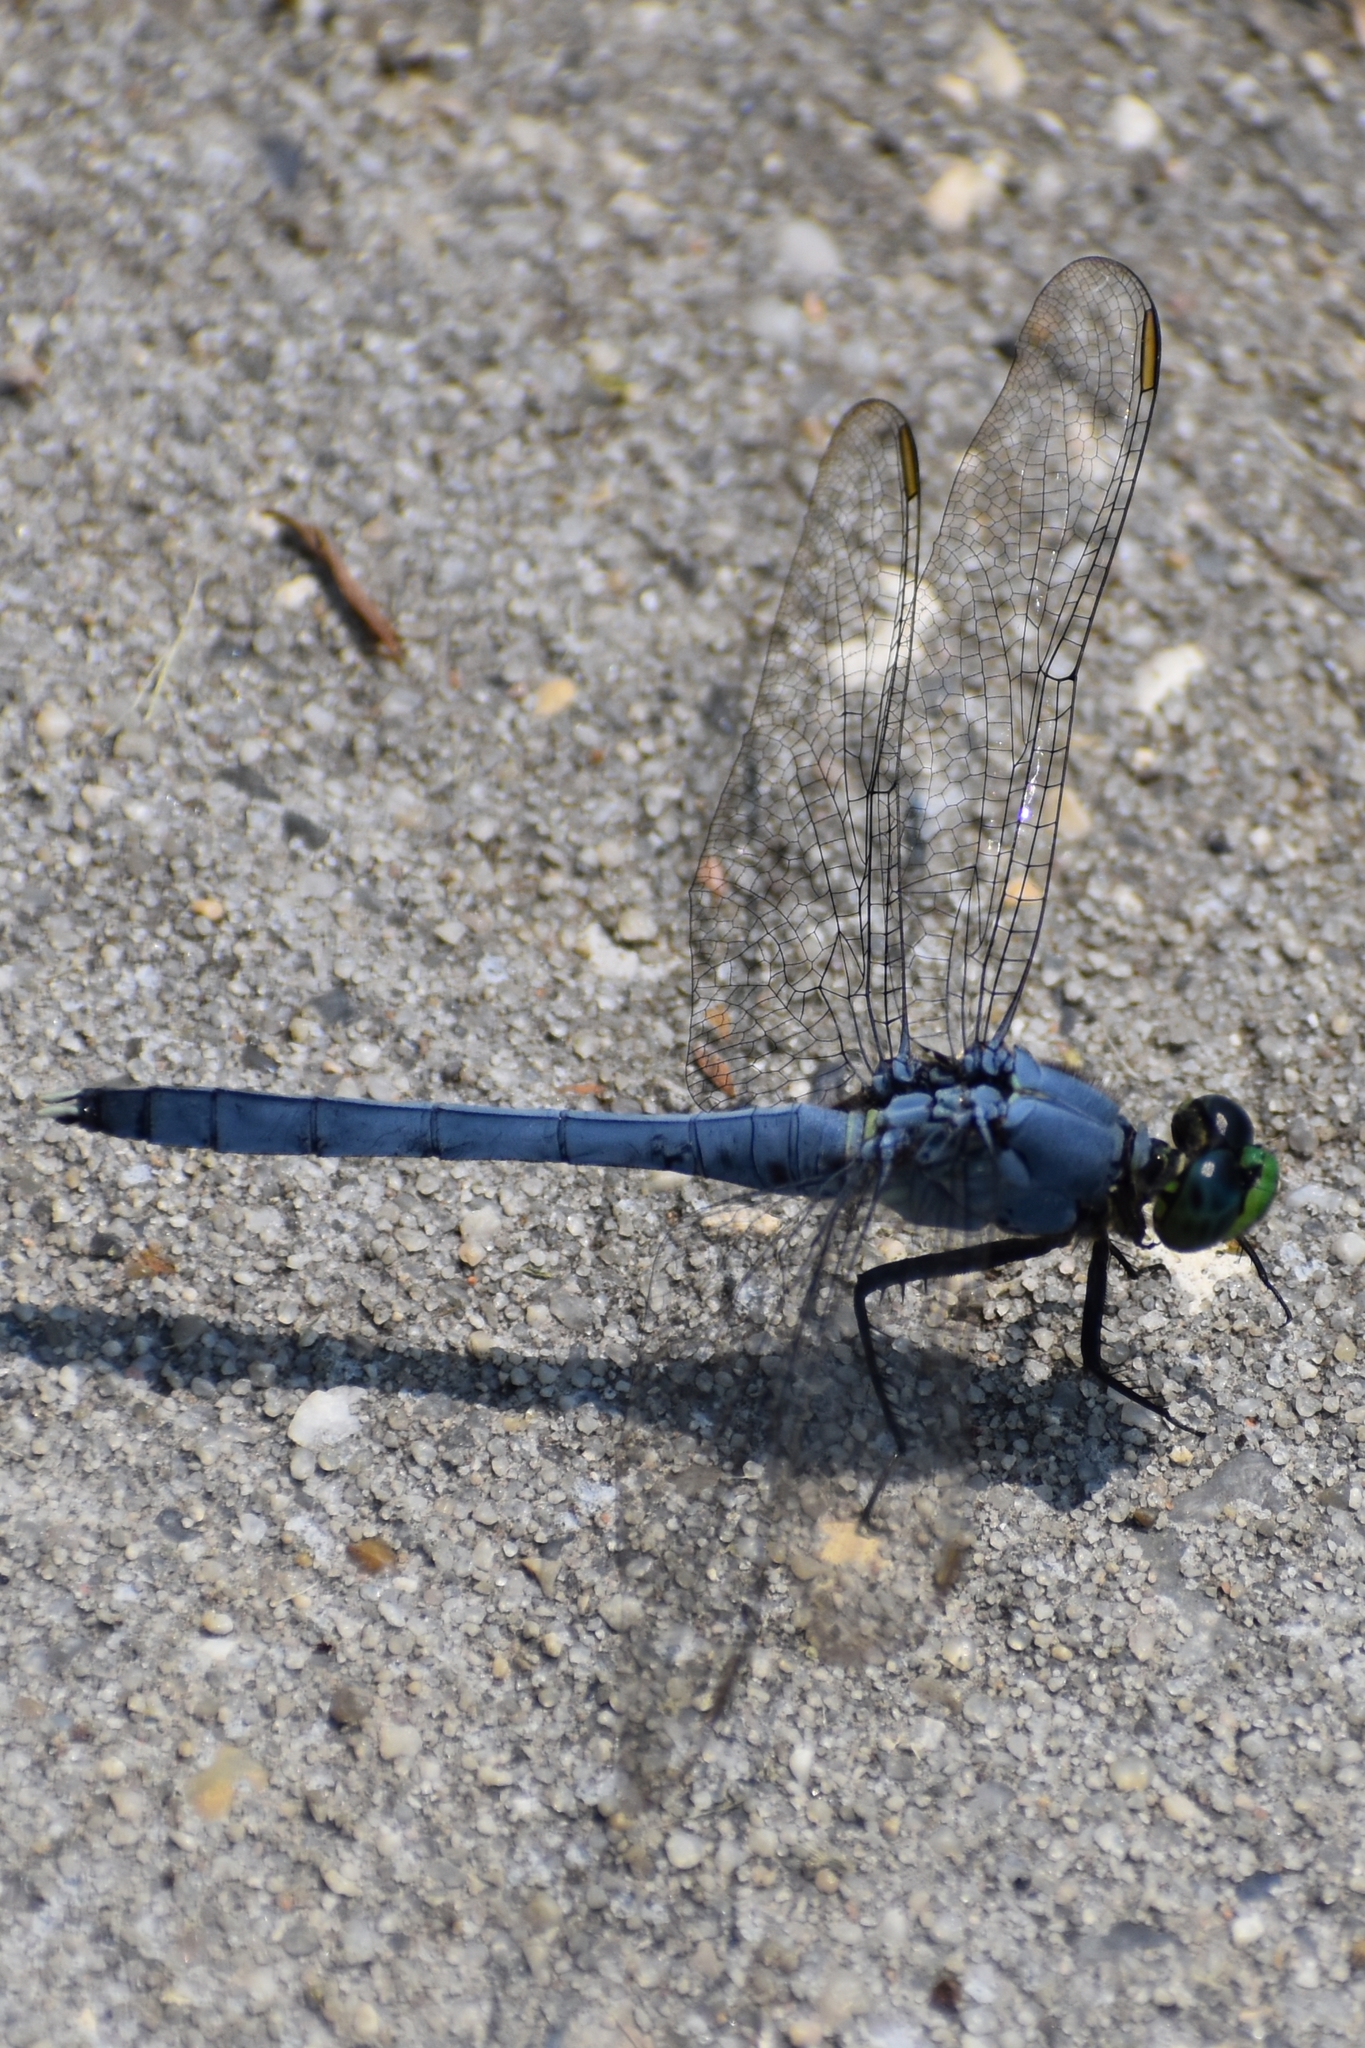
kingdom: Animalia
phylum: Arthropoda
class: Insecta
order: Odonata
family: Libellulidae
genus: Erythemis
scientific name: Erythemis simplicicollis
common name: Eastern pondhawk
